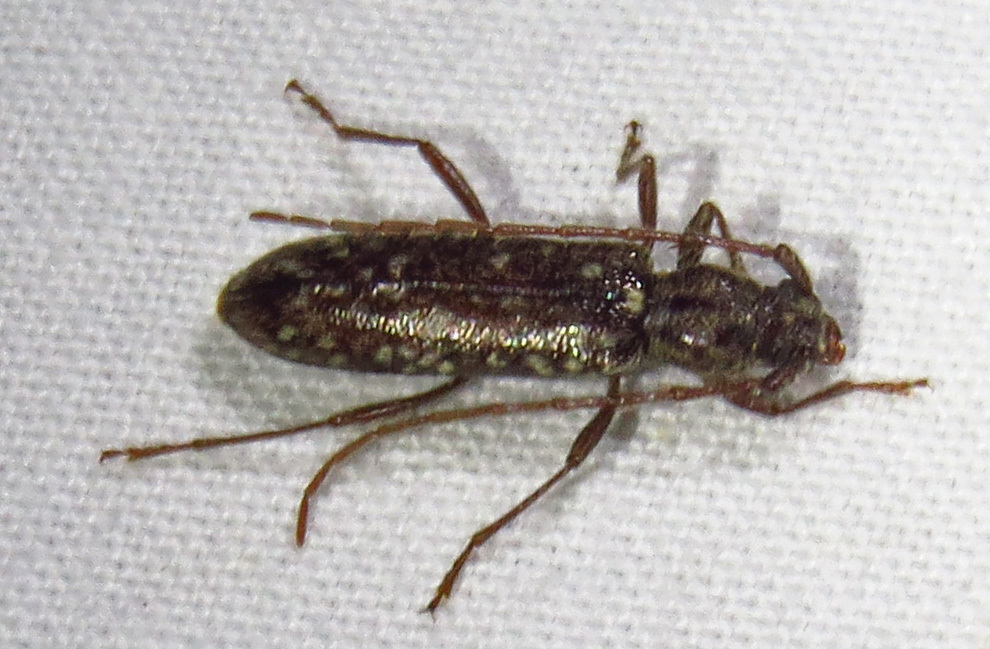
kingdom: Animalia
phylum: Arthropoda
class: Insecta
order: Coleoptera
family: Cerambycidae
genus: Anelaphus
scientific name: Anelaphus pumilus
